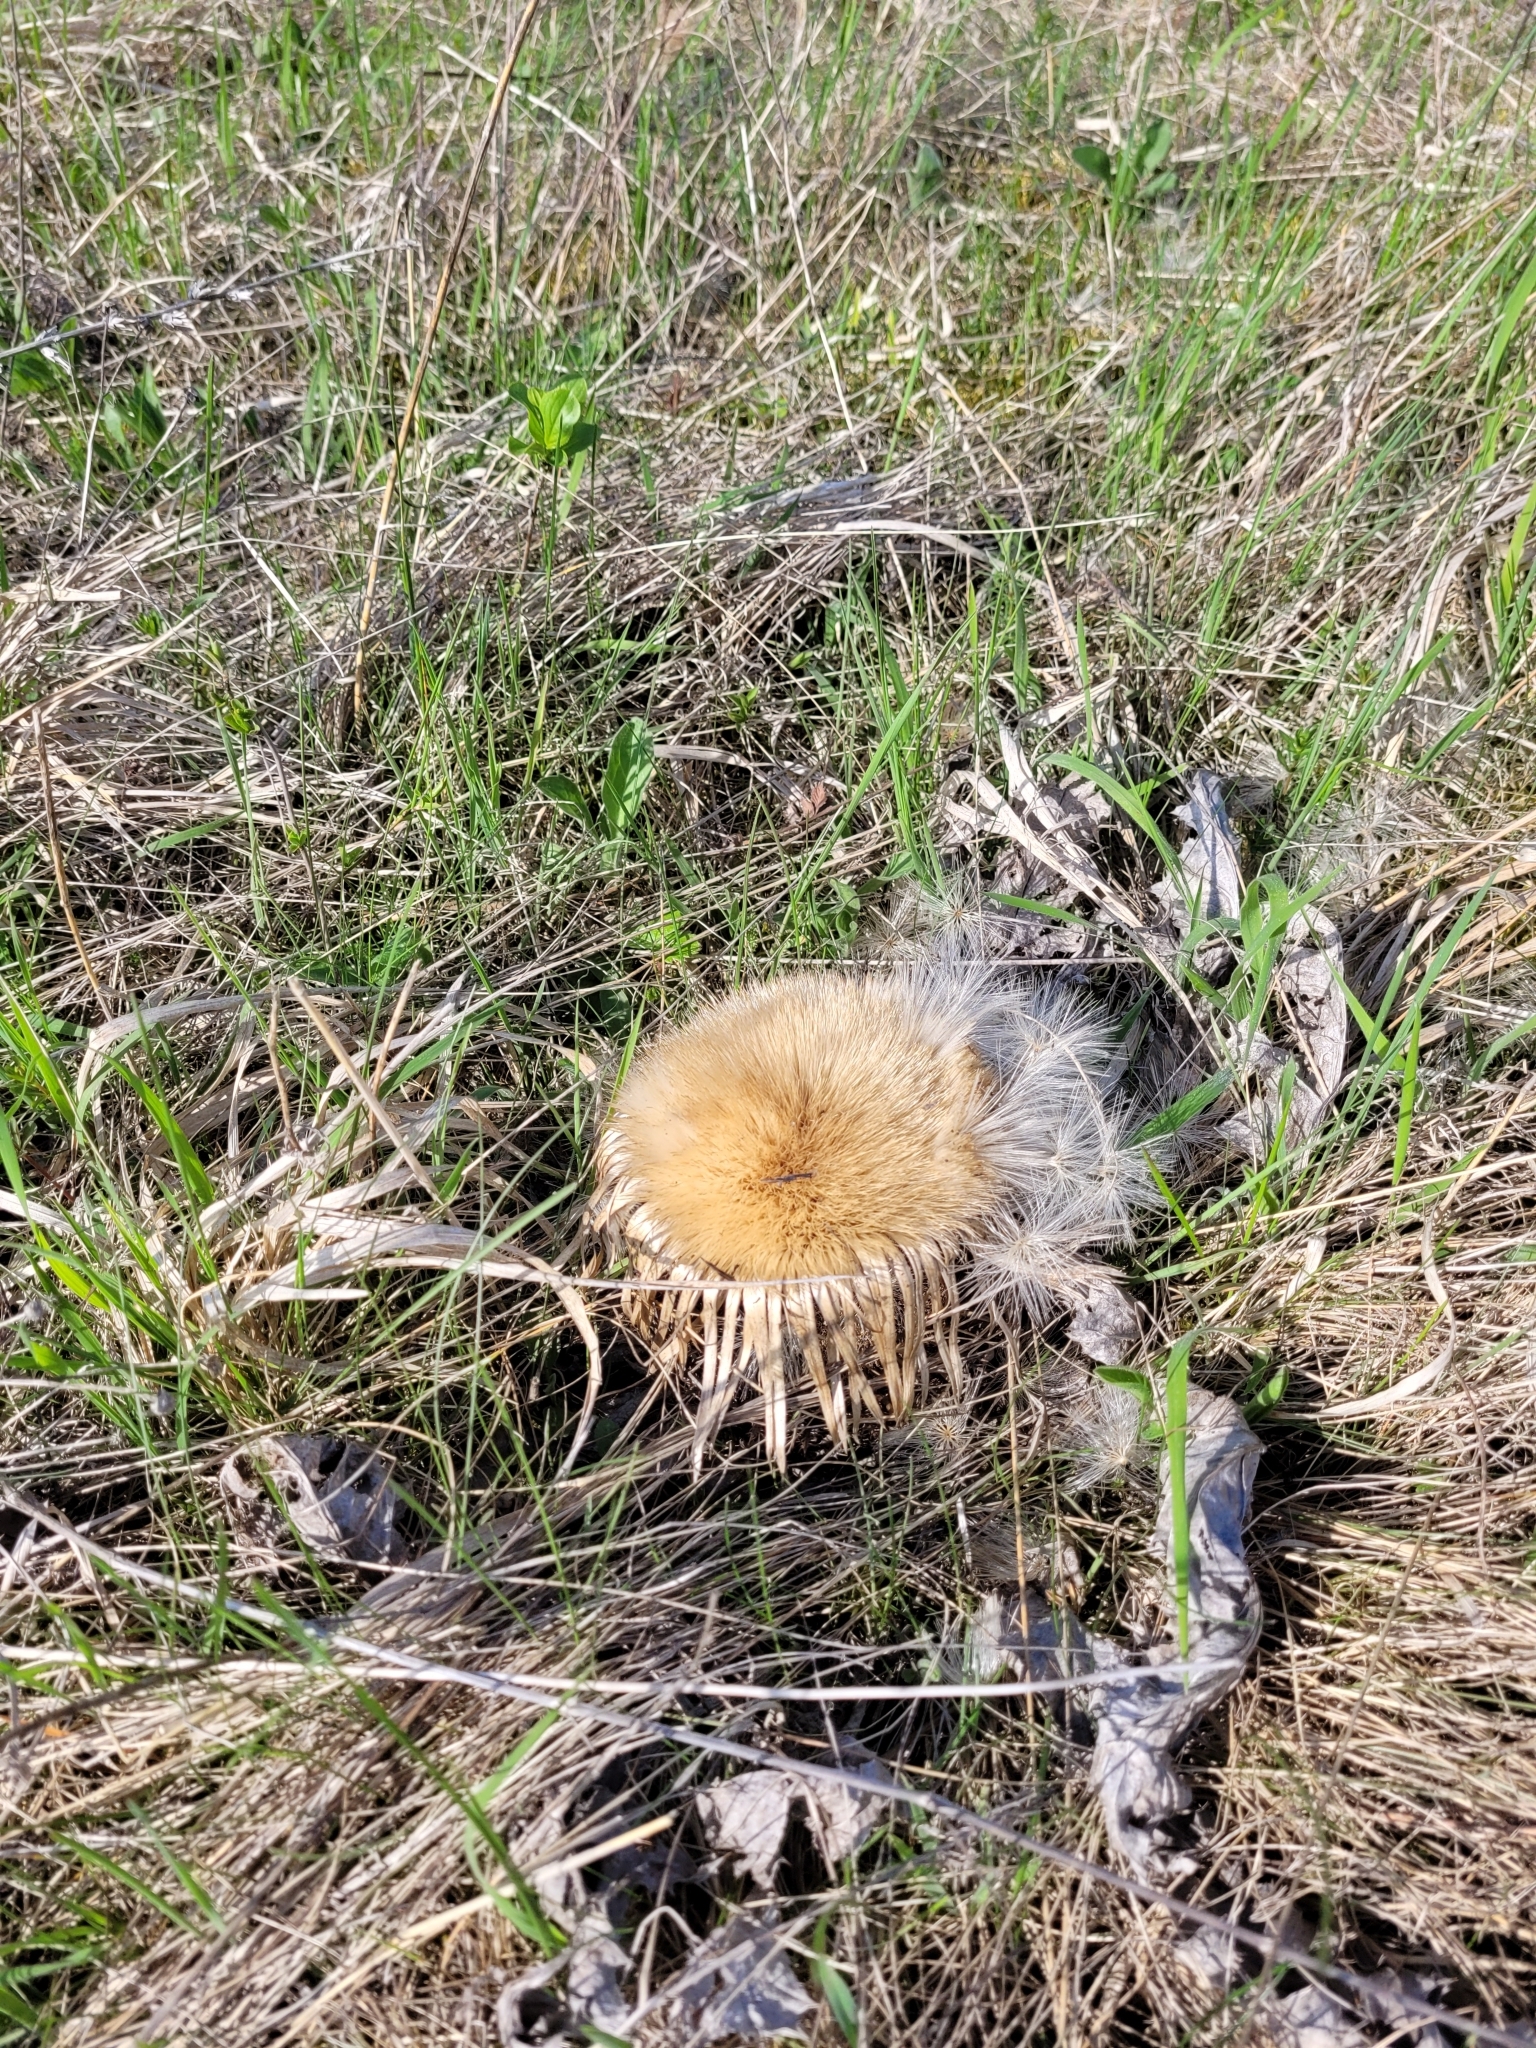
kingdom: Plantae
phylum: Tracheophyta
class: Magnoliopsida
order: Asterales
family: Asteraceae
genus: Carlina
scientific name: Carlina acanthifolia
